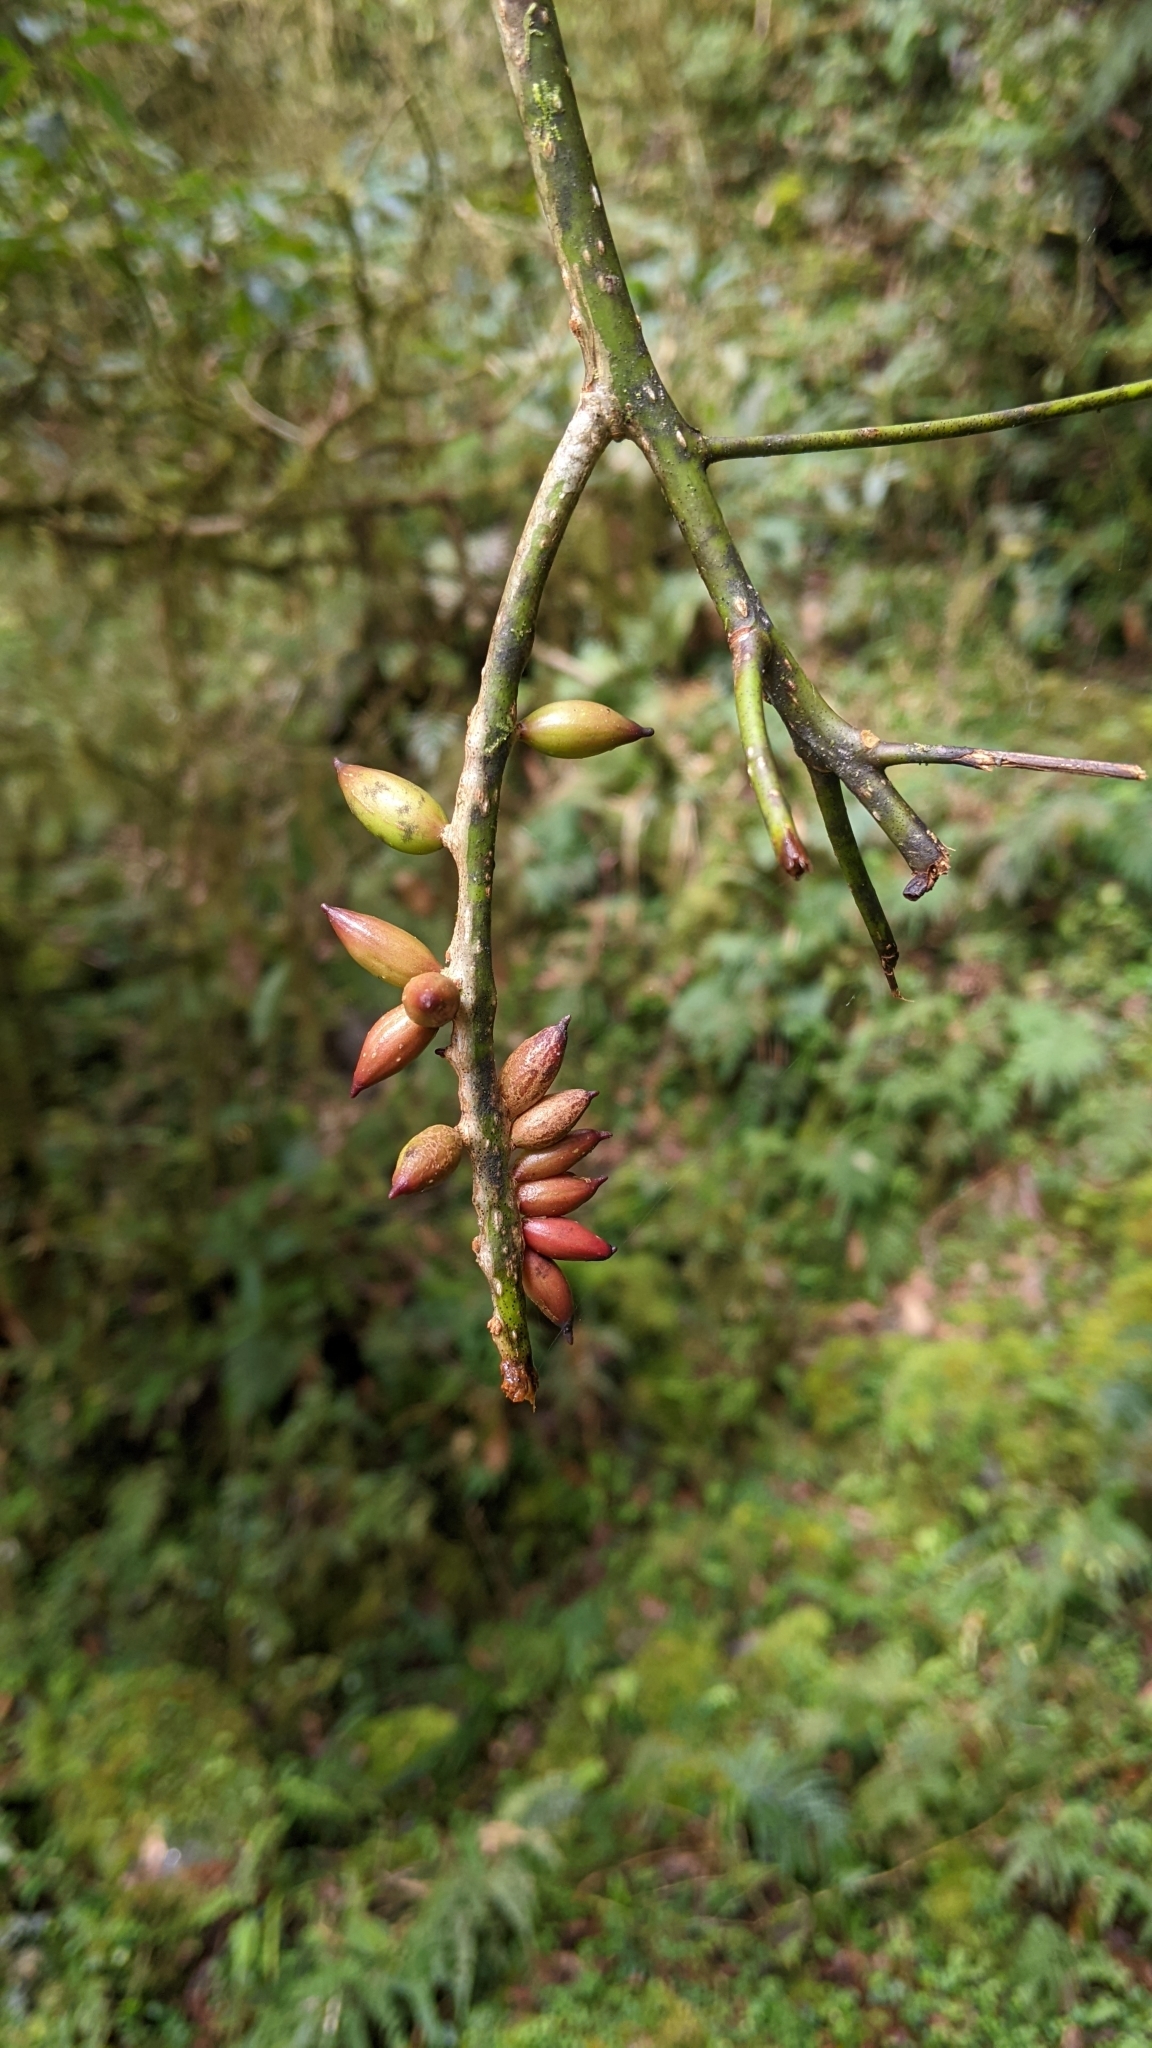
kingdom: Plantae
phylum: Tracheophyta
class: Magnoliopsida
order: Laurales
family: Lauraceae
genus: Machilus
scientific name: Machilus japonica
